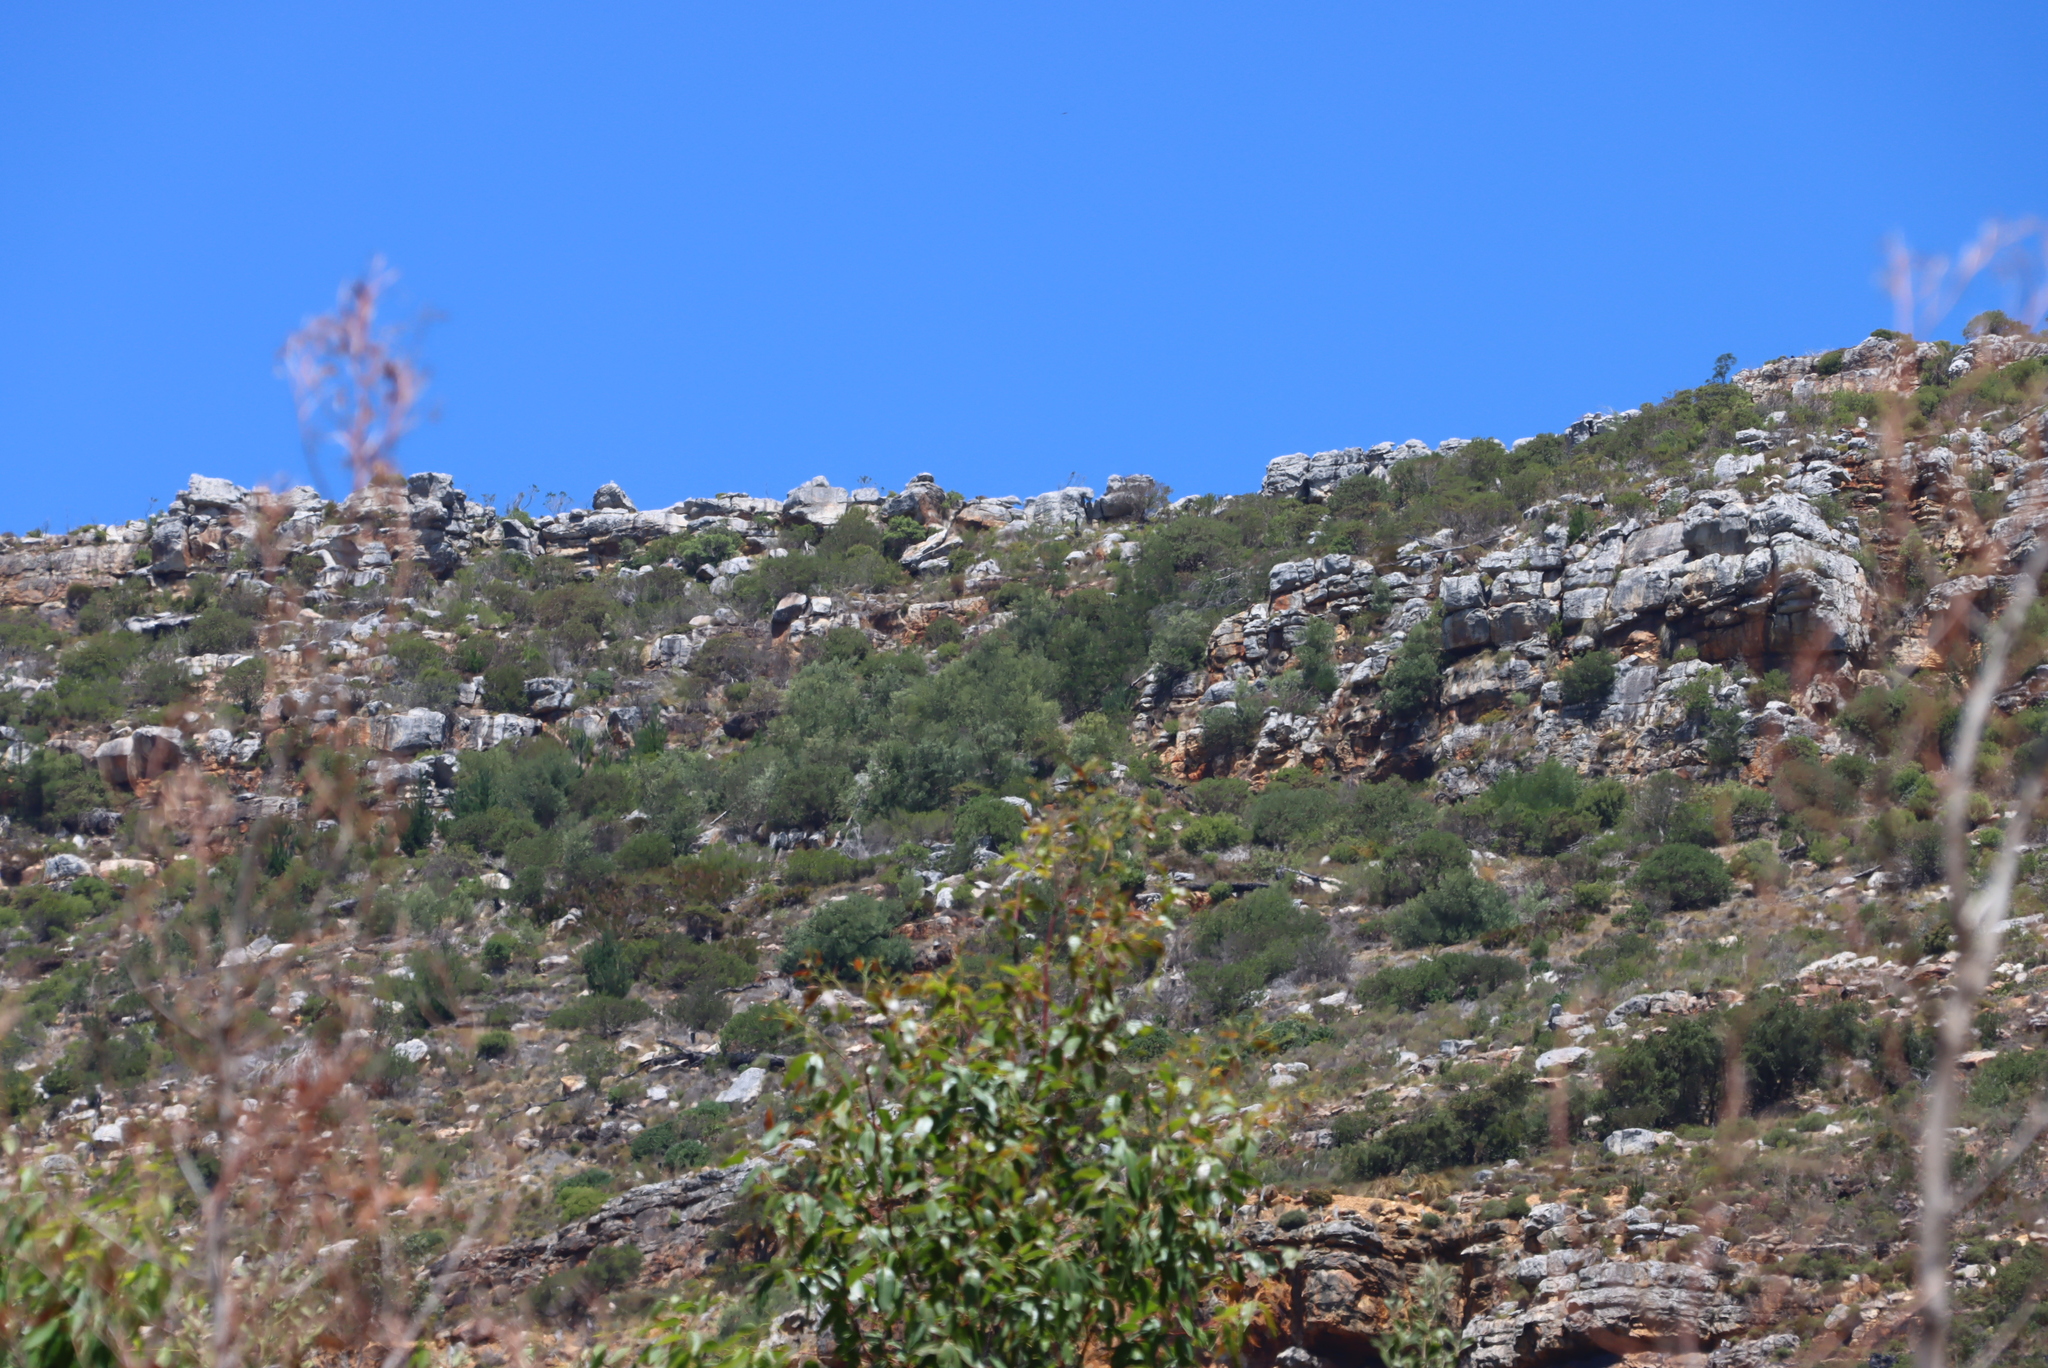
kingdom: Plantae
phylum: Tracheophyta
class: Magnoliopsida
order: Fabales
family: Fabaceae
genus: Acacia
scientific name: Acacia melanoxylon
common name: Blackwood
